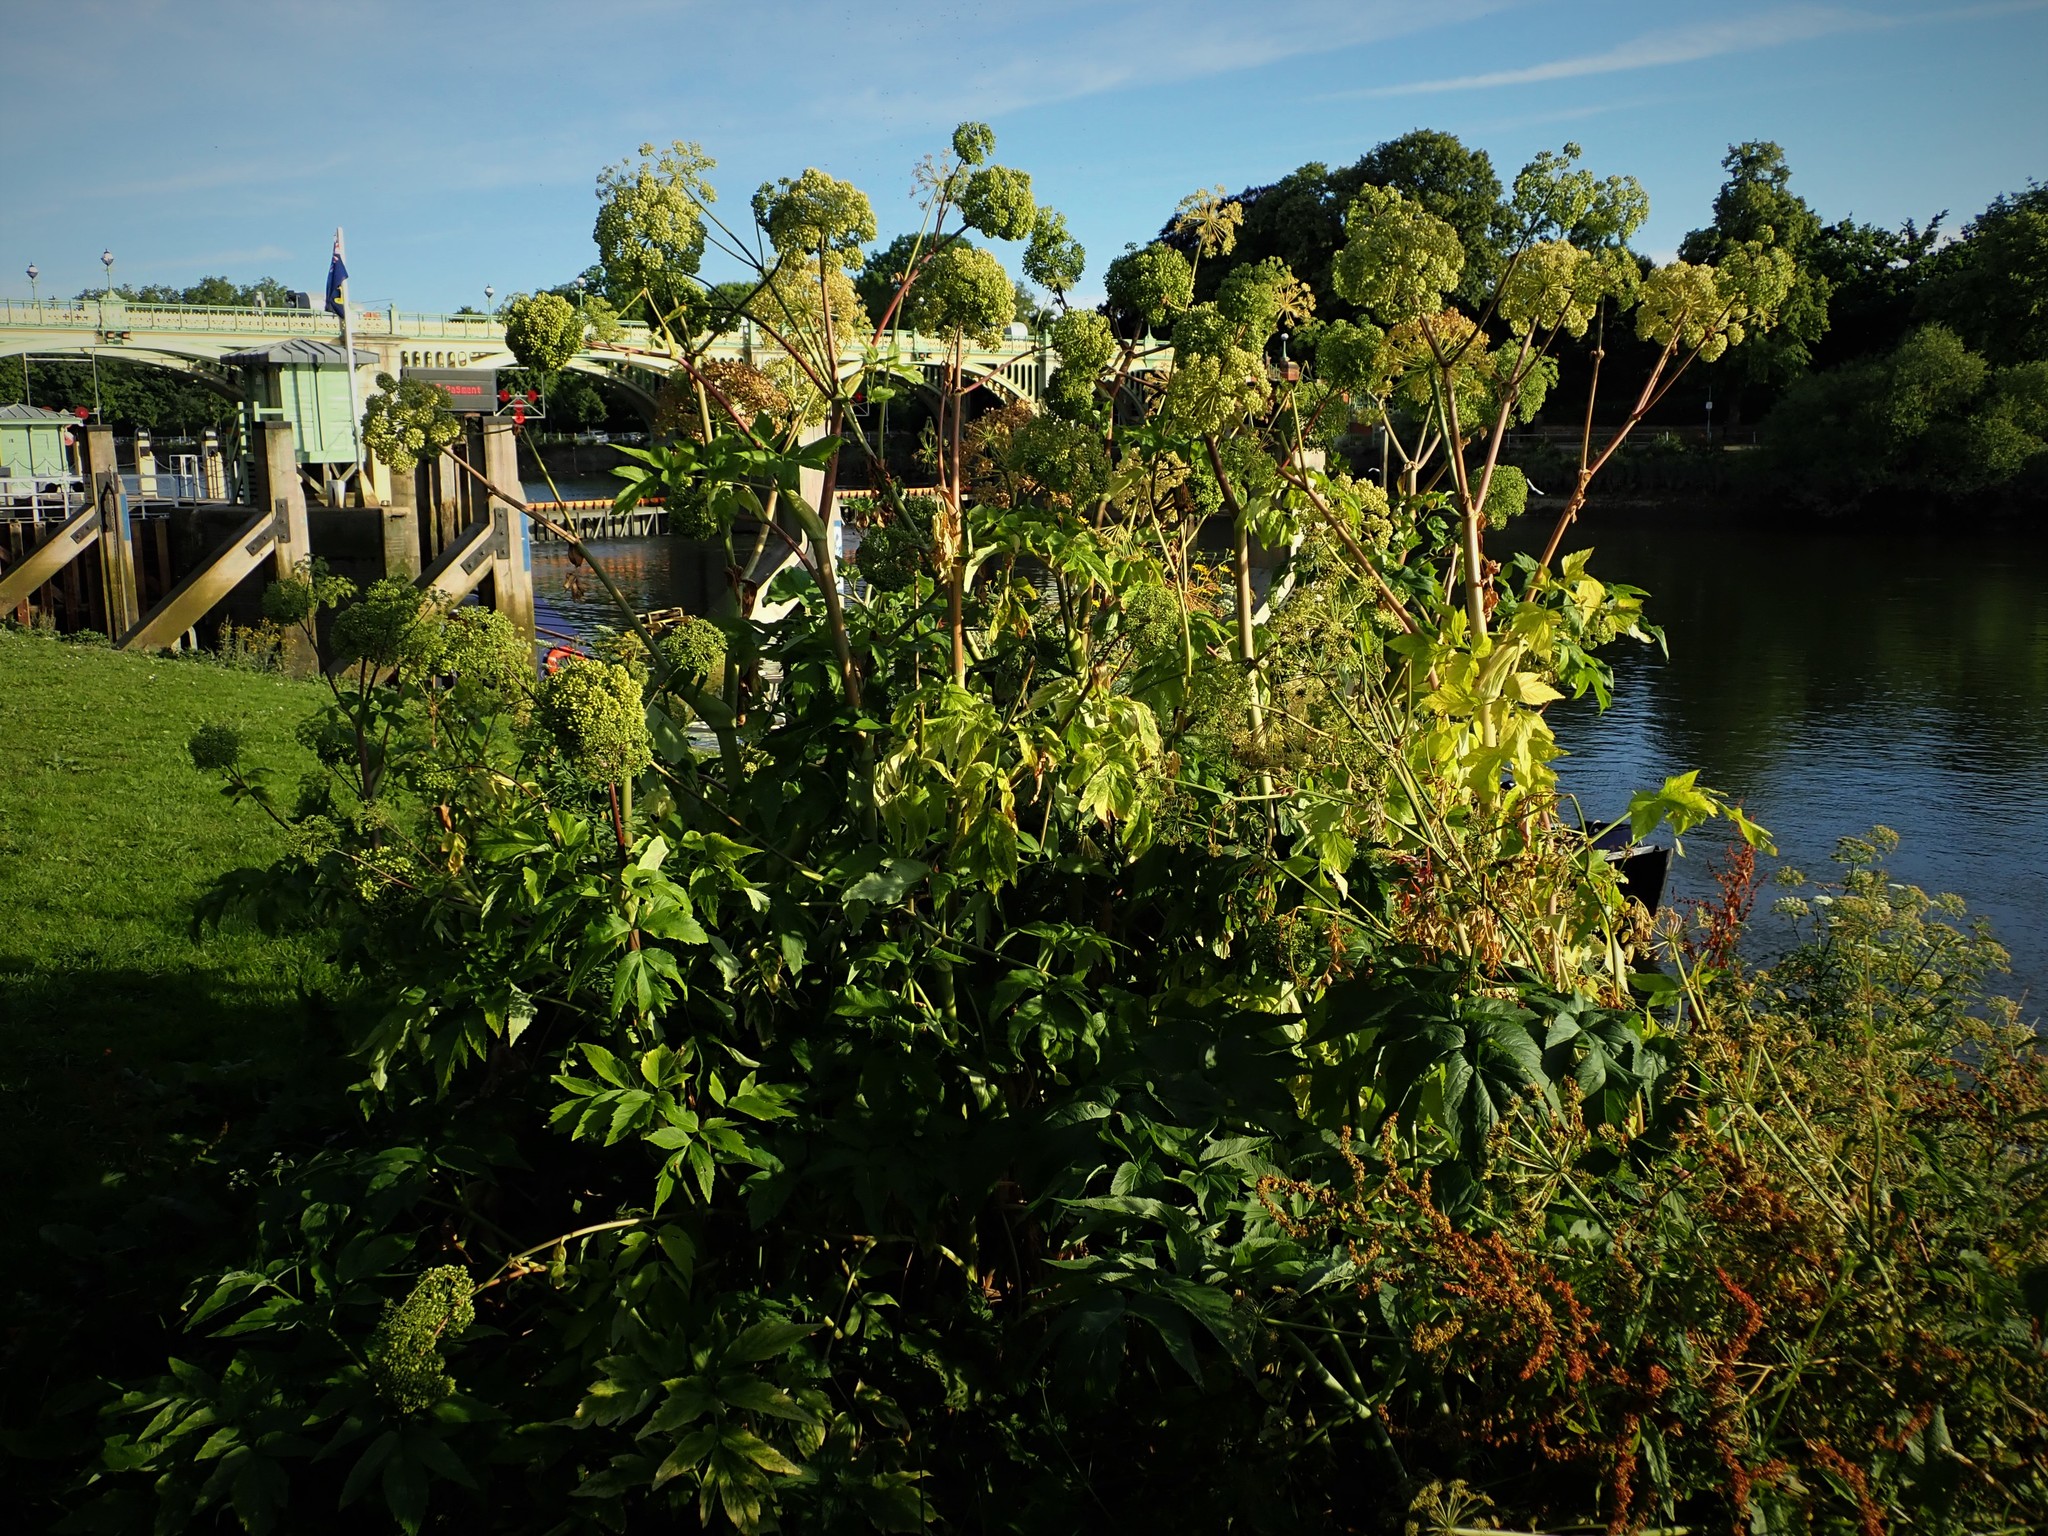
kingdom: Plantae
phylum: Tracheophyta
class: Magnoliopsida
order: Apiales
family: Apiaceae
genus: Angelica
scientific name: Angelica archangelica
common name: Garden angelica
